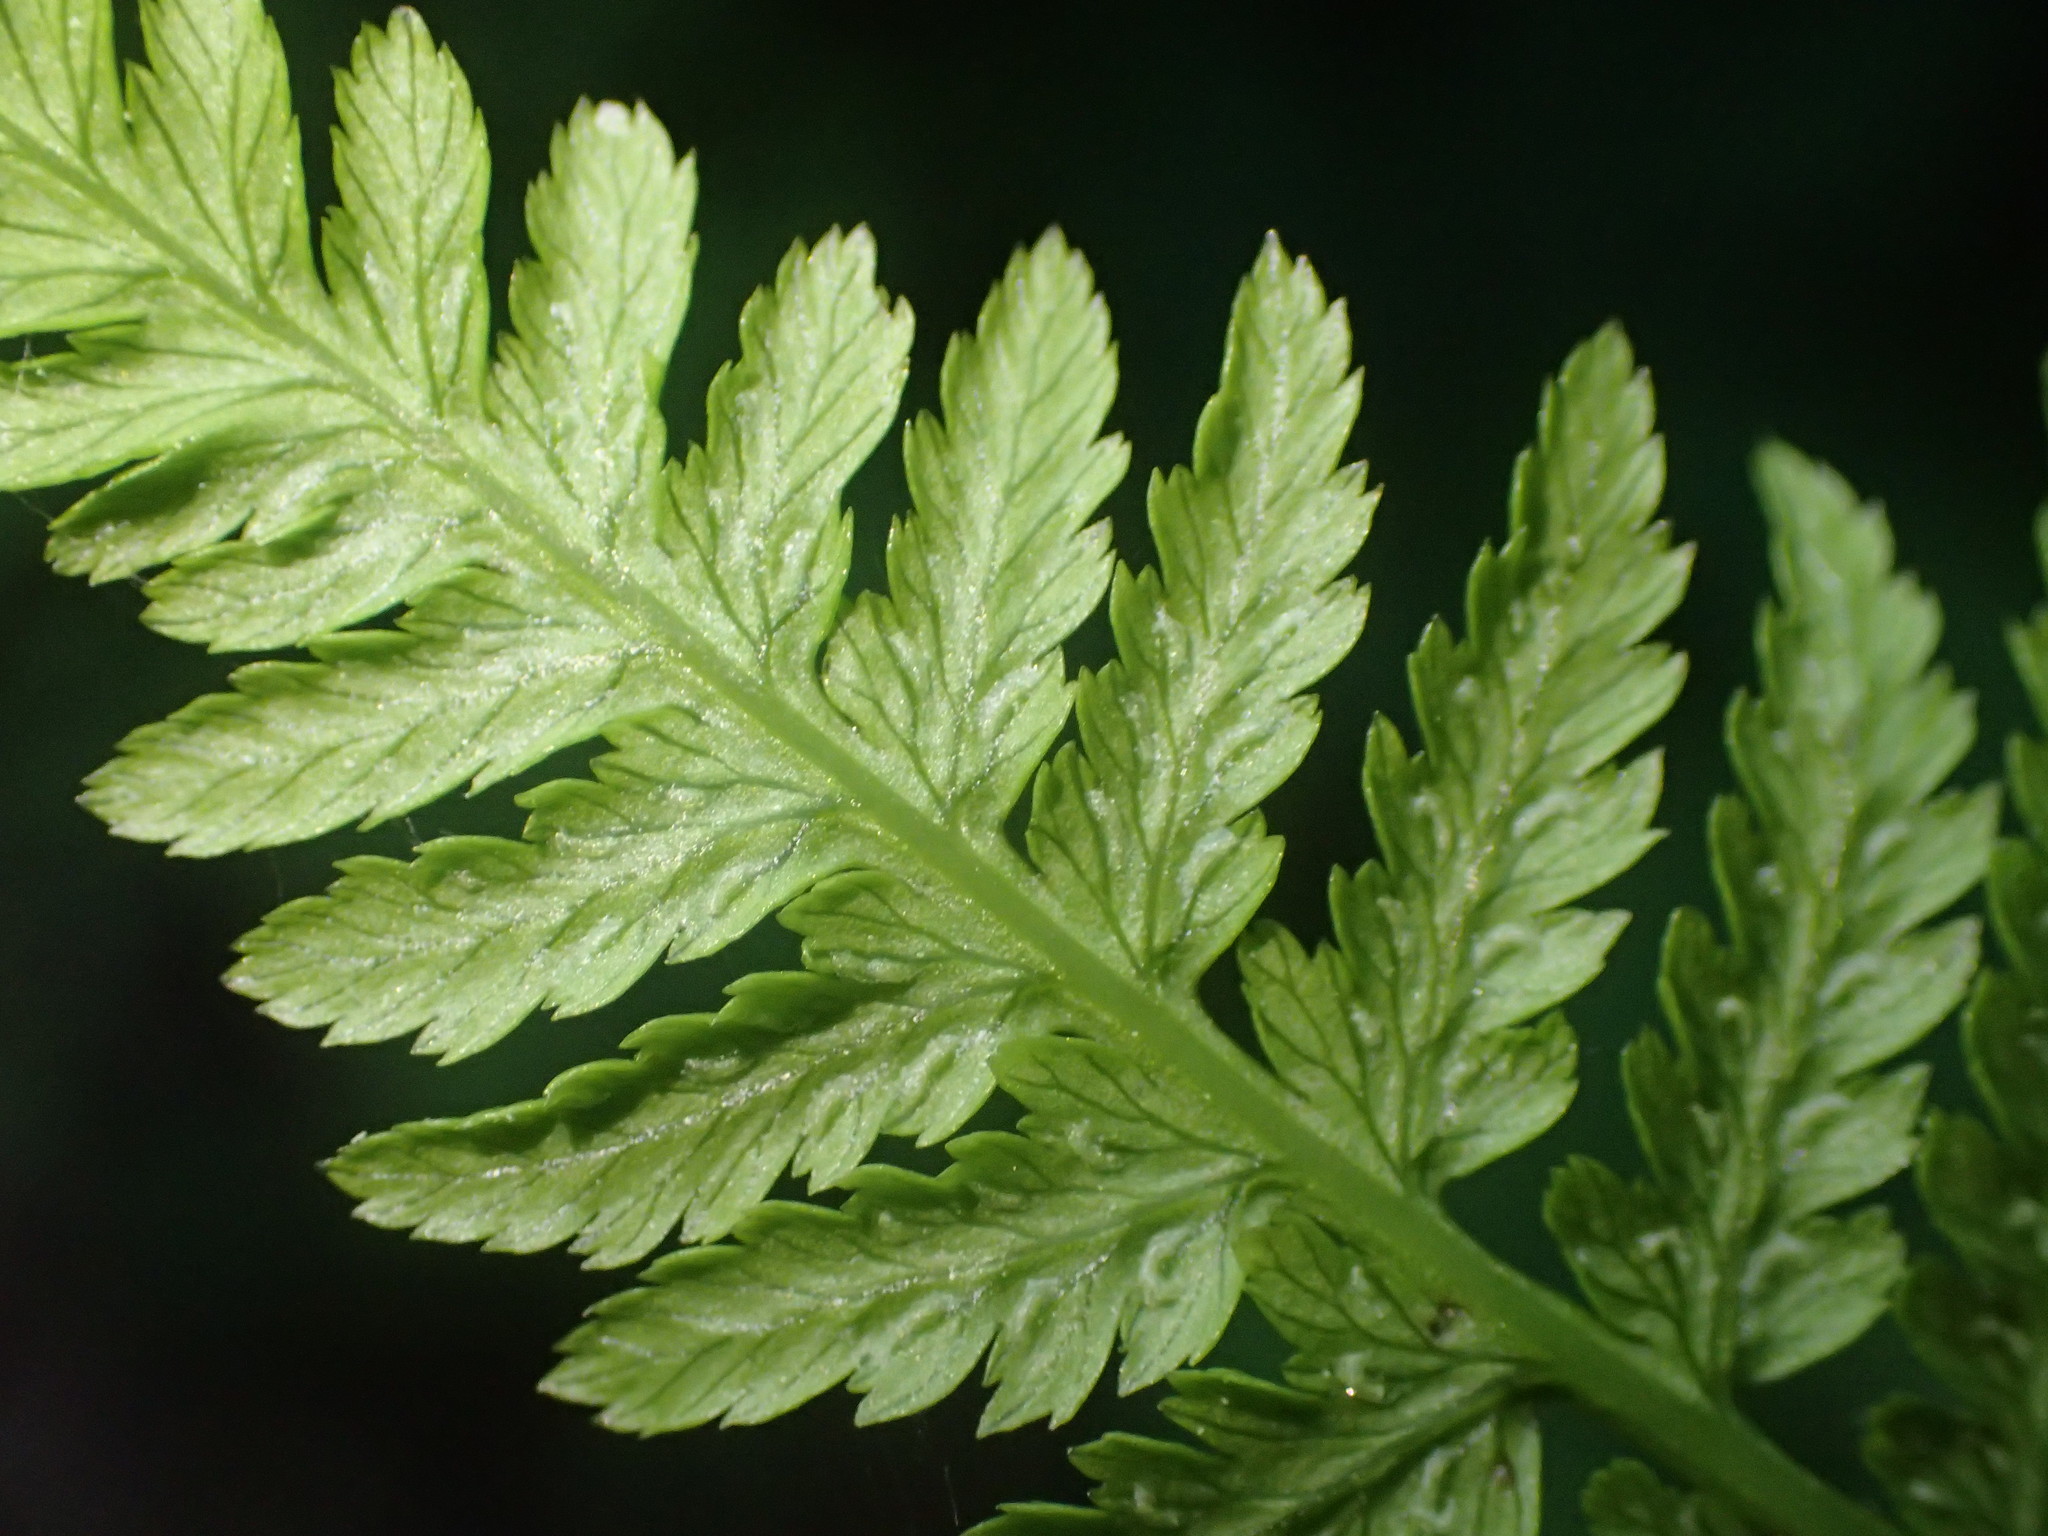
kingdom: Plantae
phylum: Tracheophyta
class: Polypodiopsida
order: Polypodiales
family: Athyriaceae
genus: Athyrium
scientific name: Athyrium angustum
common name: Northern lady fern
